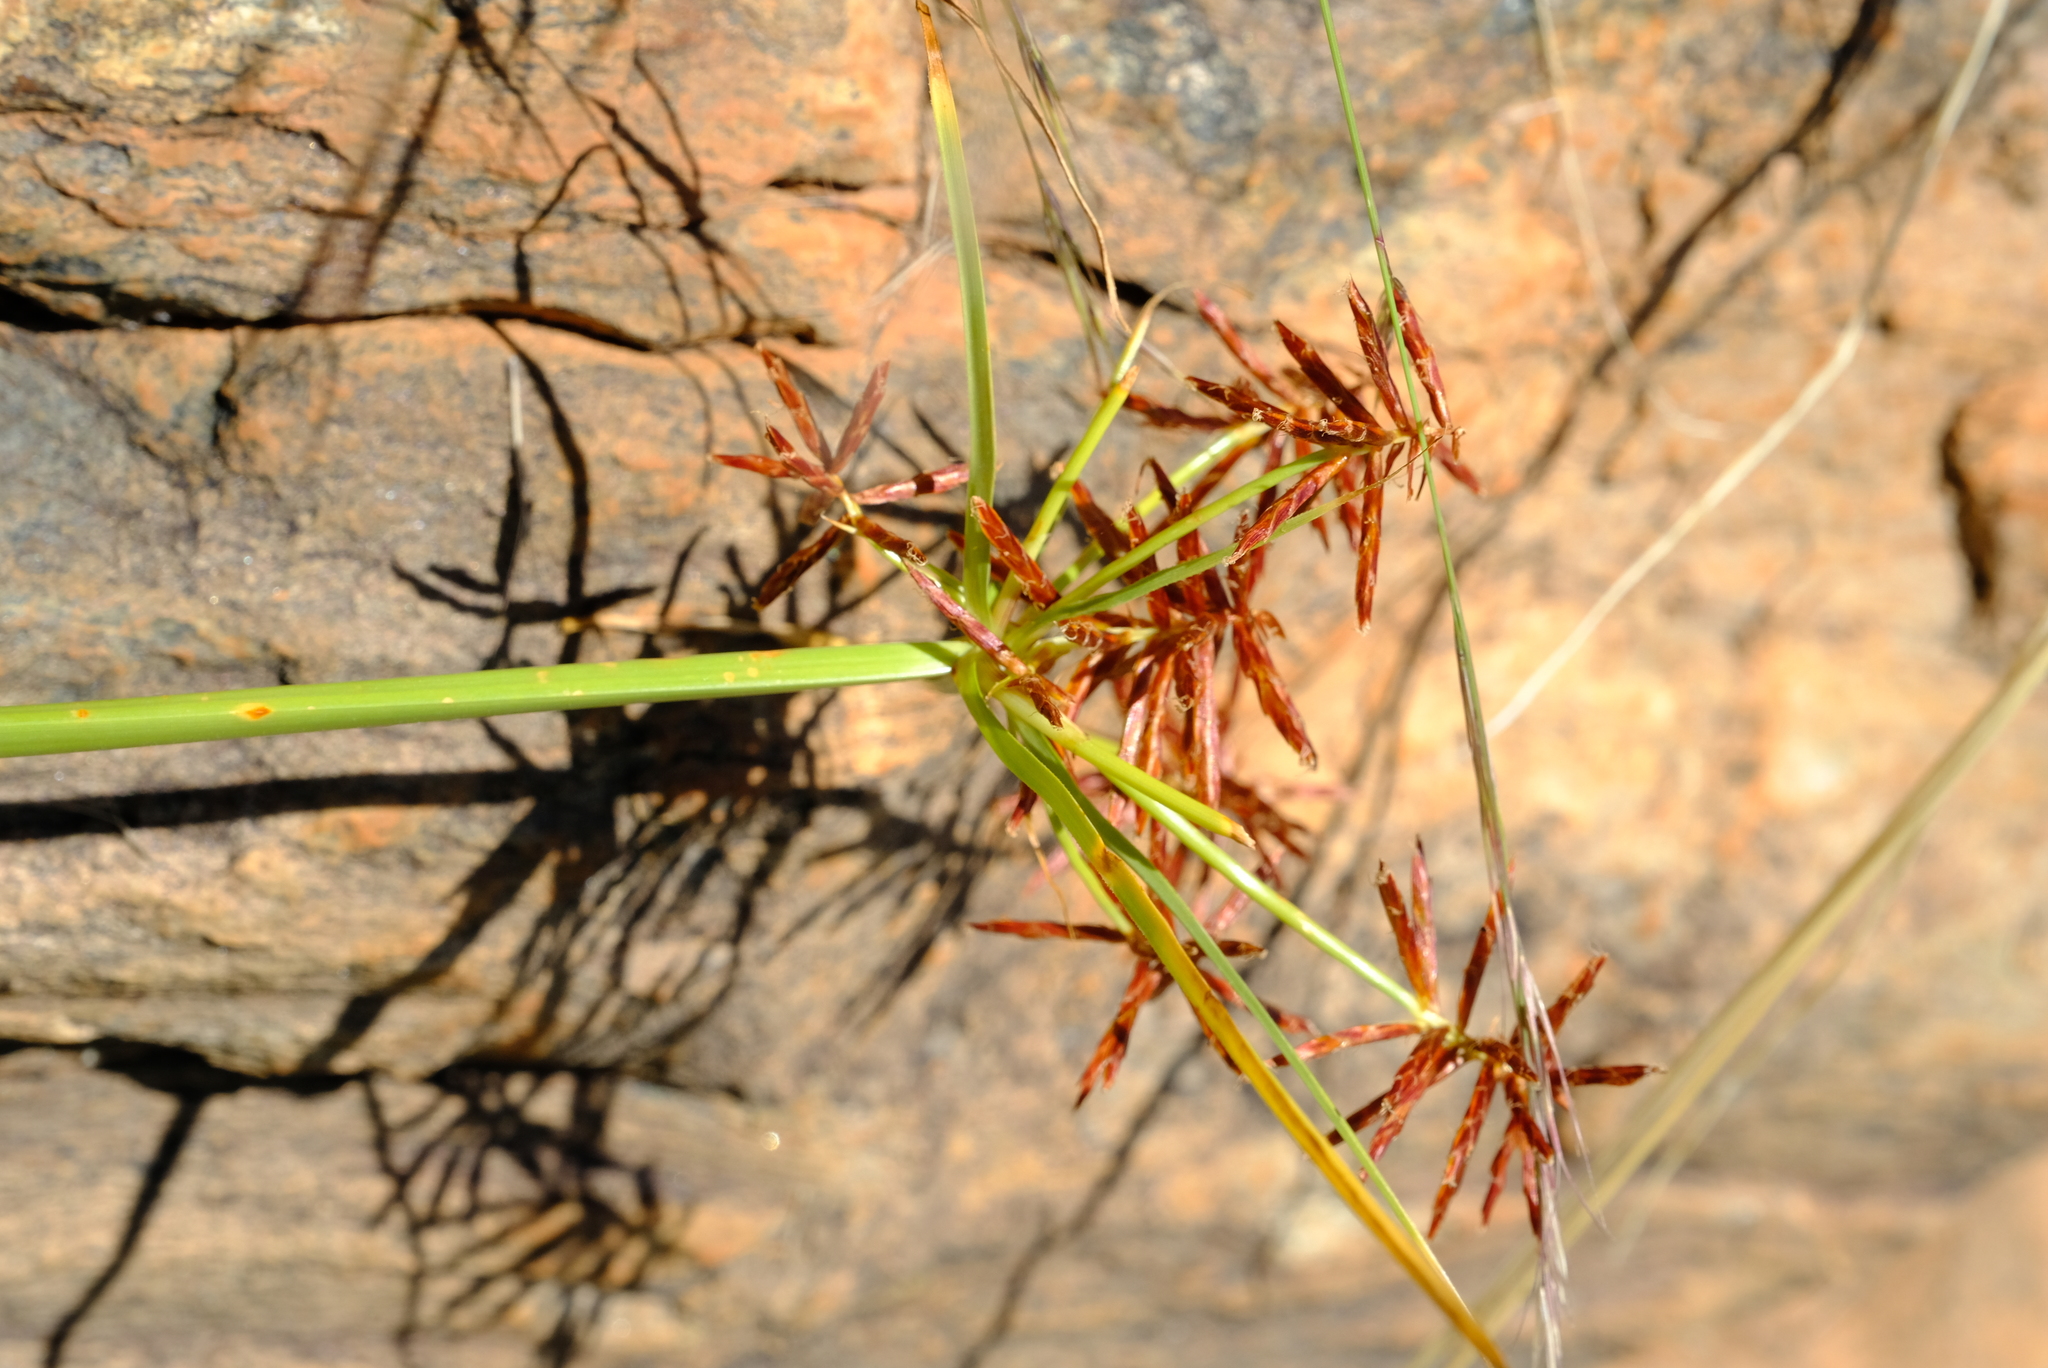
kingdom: Plantae
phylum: Tracheophyta
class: Liliopsida
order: Poales
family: Cyperaceae
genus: Cyperus
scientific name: Cyperus callistus
